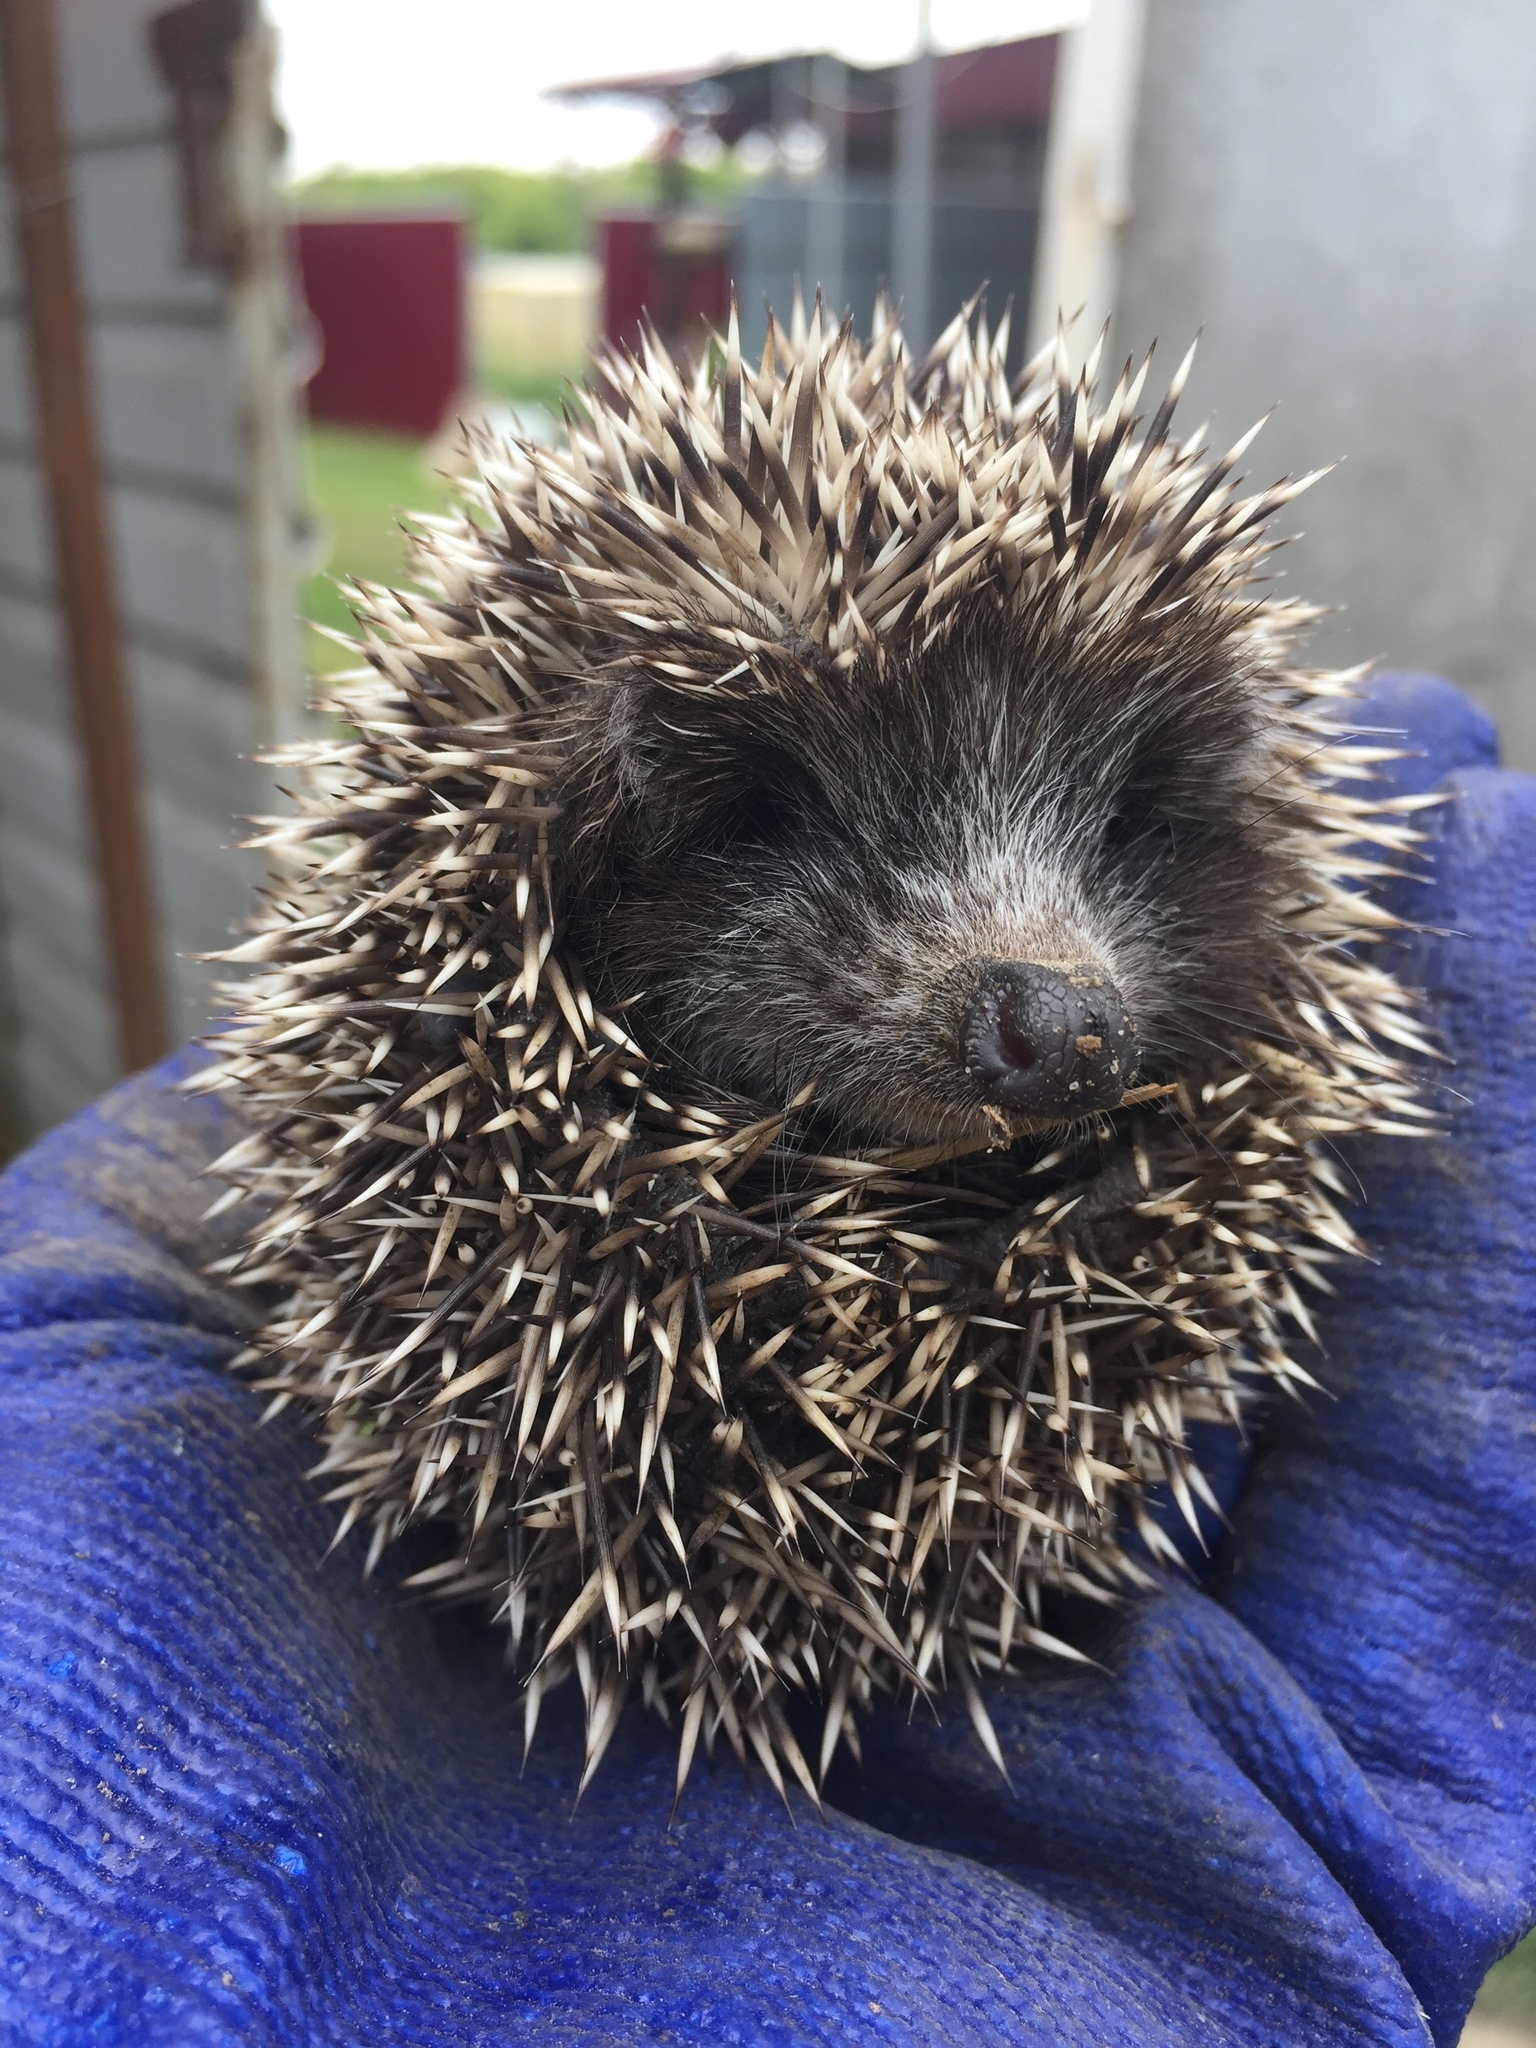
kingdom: Animalia
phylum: Chordata
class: Mammalia
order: Erinaceomorpha
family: Erinaceidae
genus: Erinaceus
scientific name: Erinaceus roumanicus
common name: Northern white-breasted hedgehog
